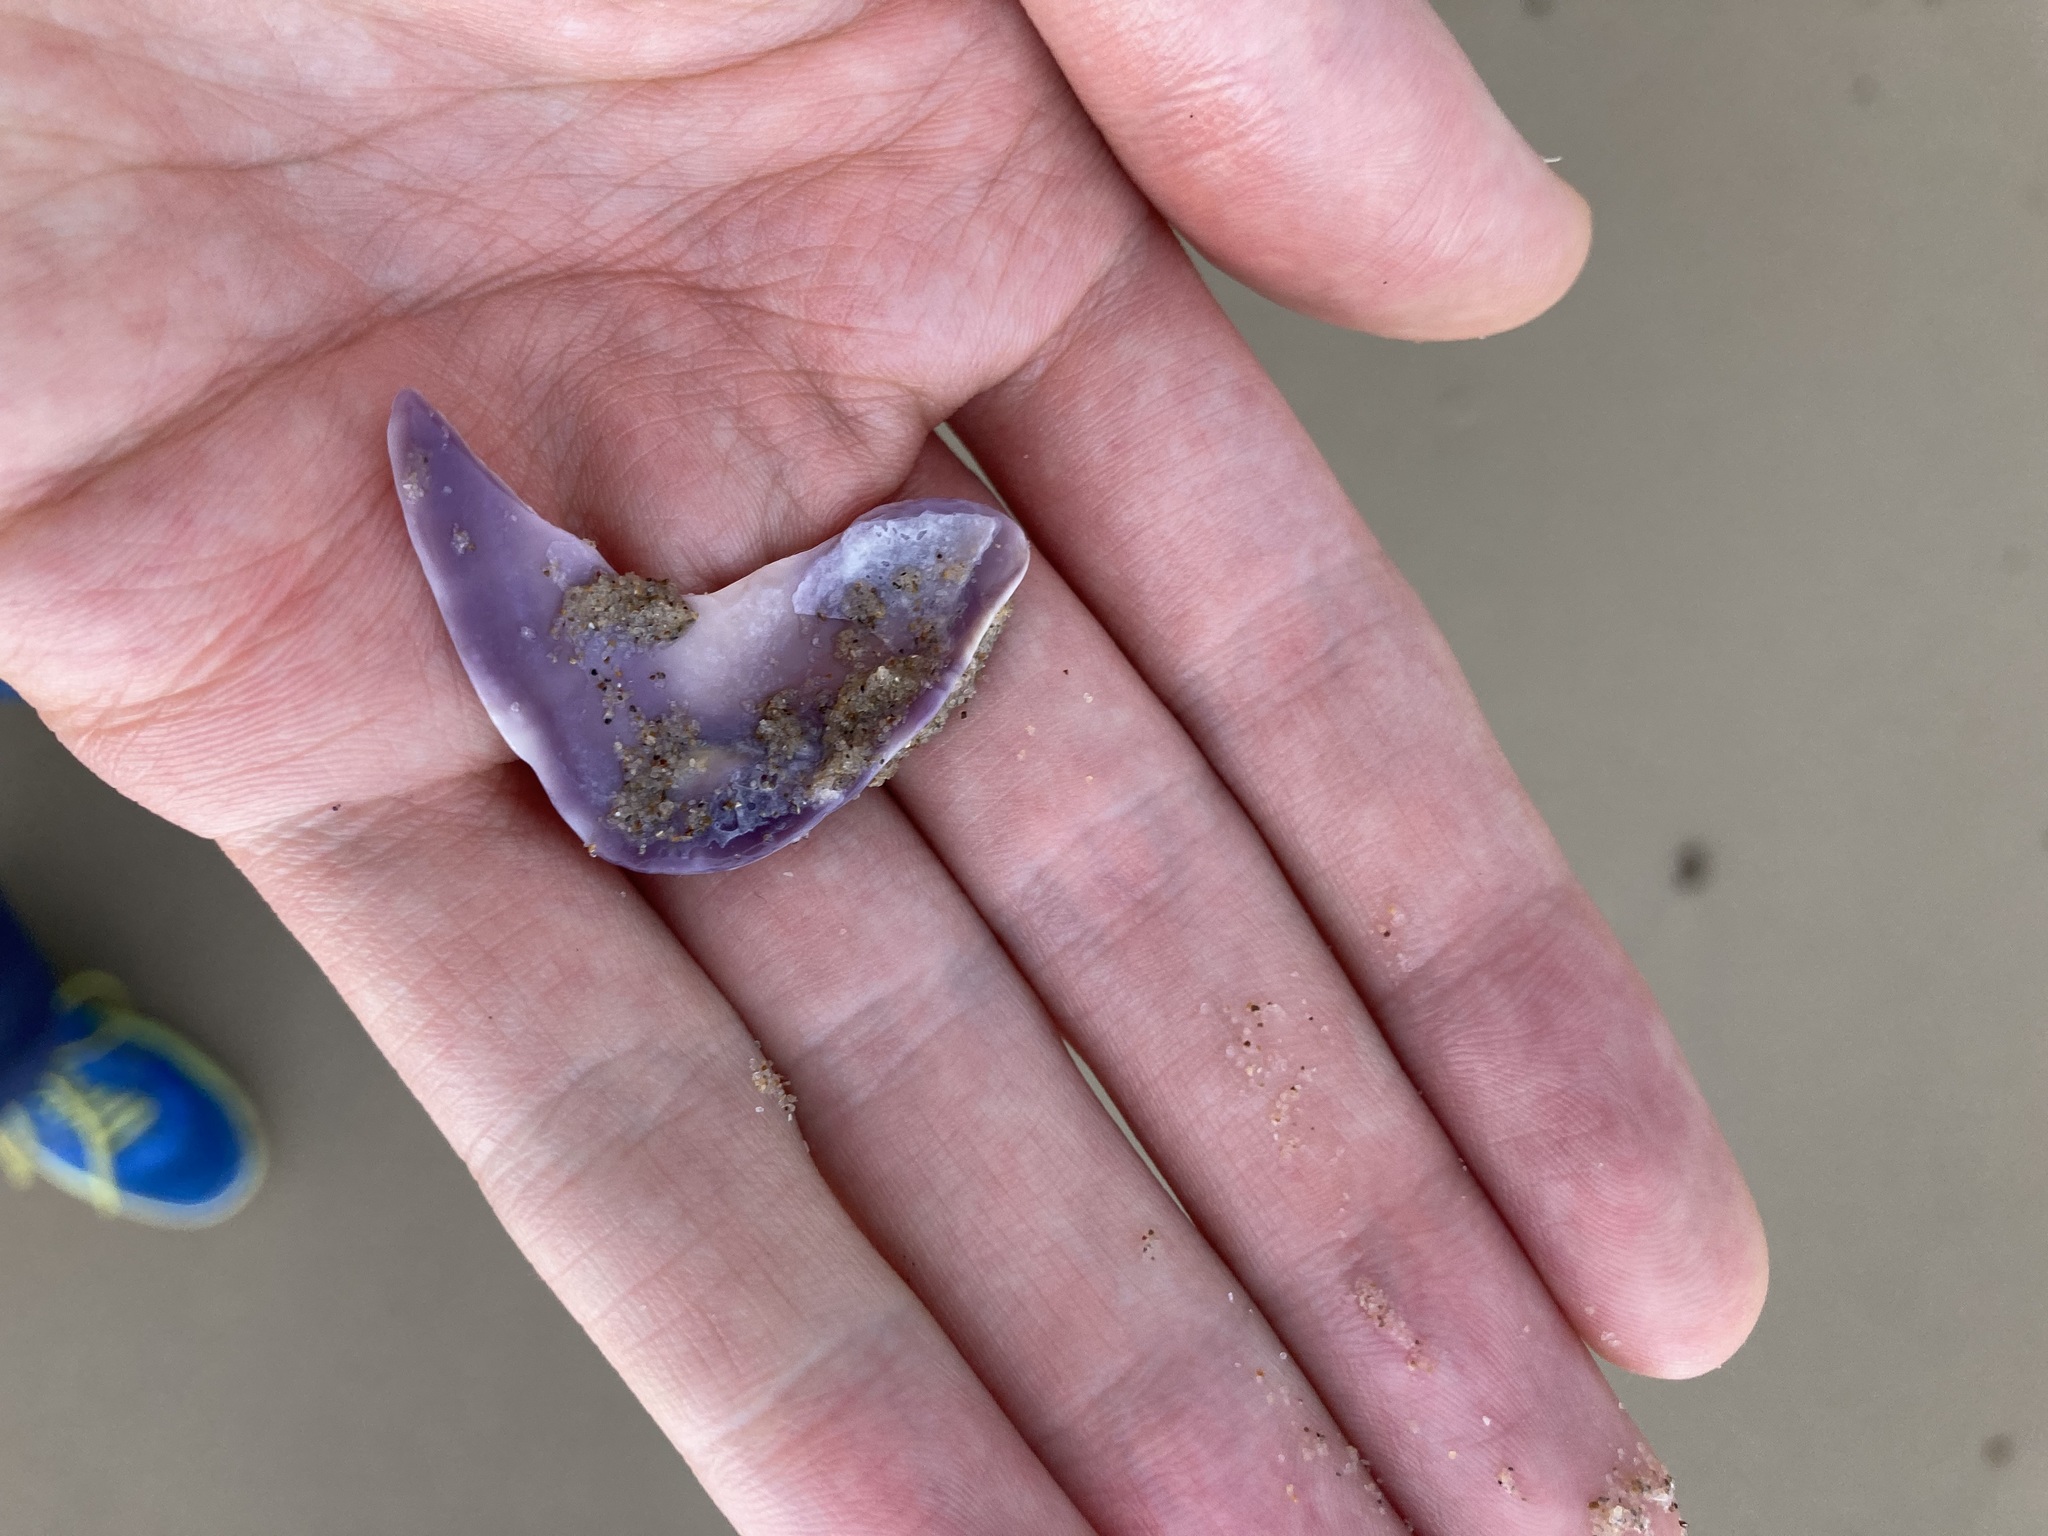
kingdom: Animalia
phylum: Mollusca
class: Bivalvia
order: Cardiida
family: Donacidae
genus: Latona
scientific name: Latona deltoides
